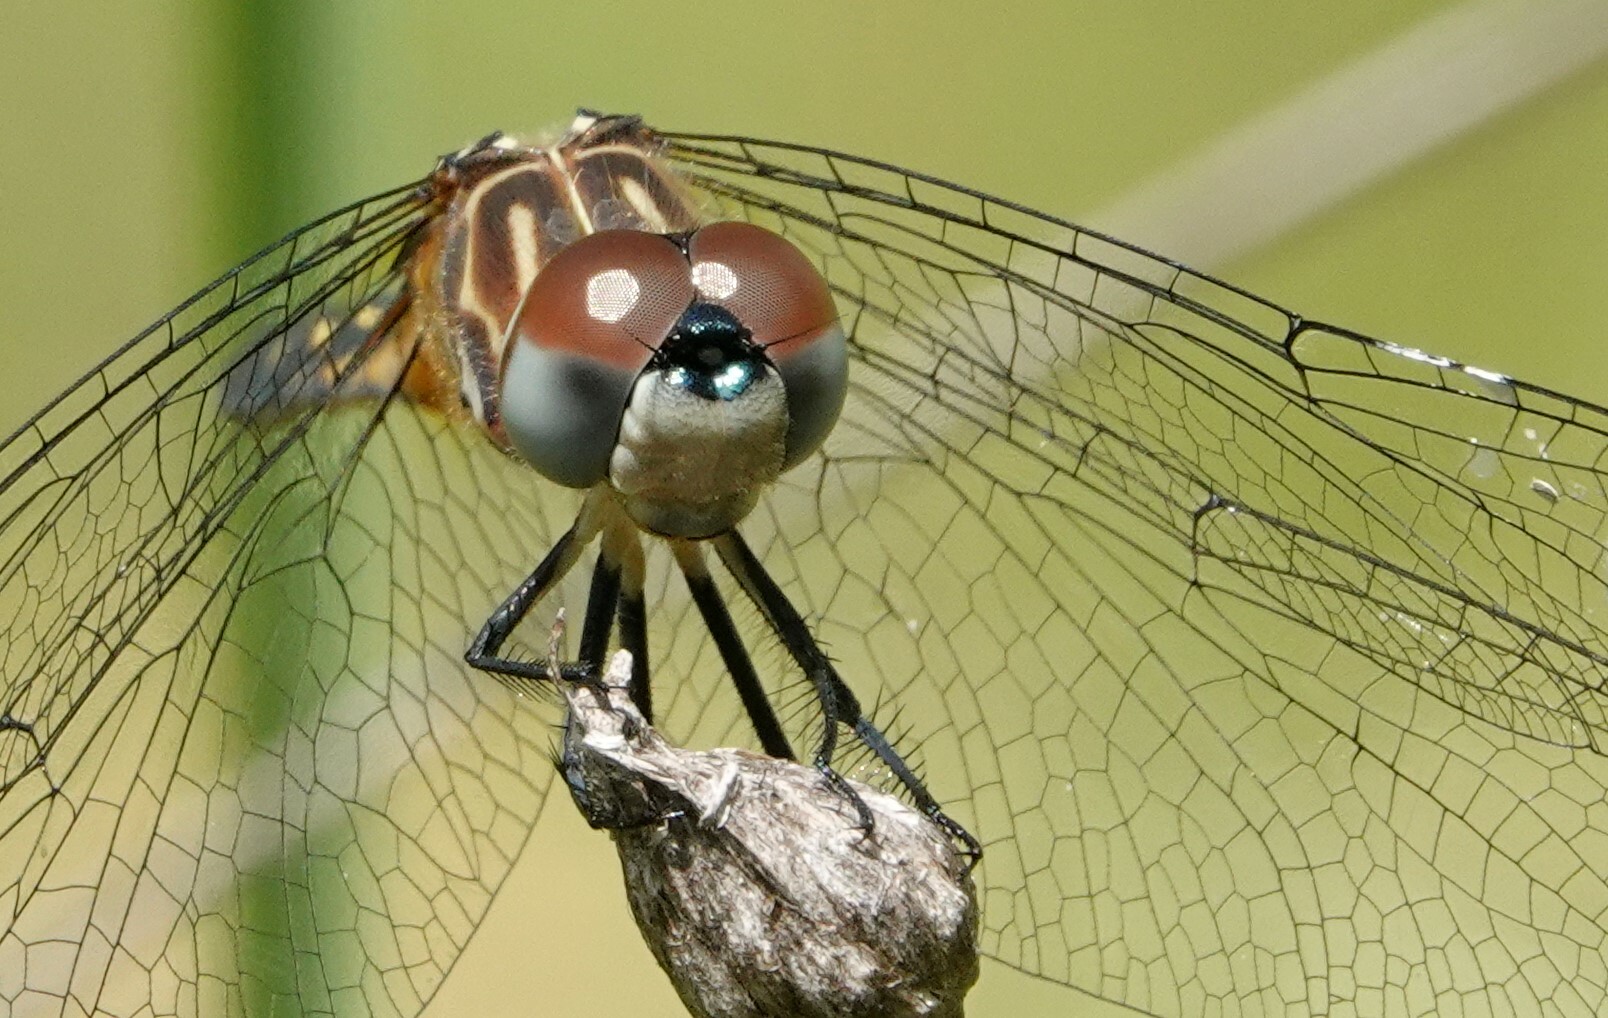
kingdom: Animalia
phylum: Arthropoda
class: Insecta
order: Odonata
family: Libellulidae
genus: Pachydiplax
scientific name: Pachydiplax longipennis
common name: Blue dasher
